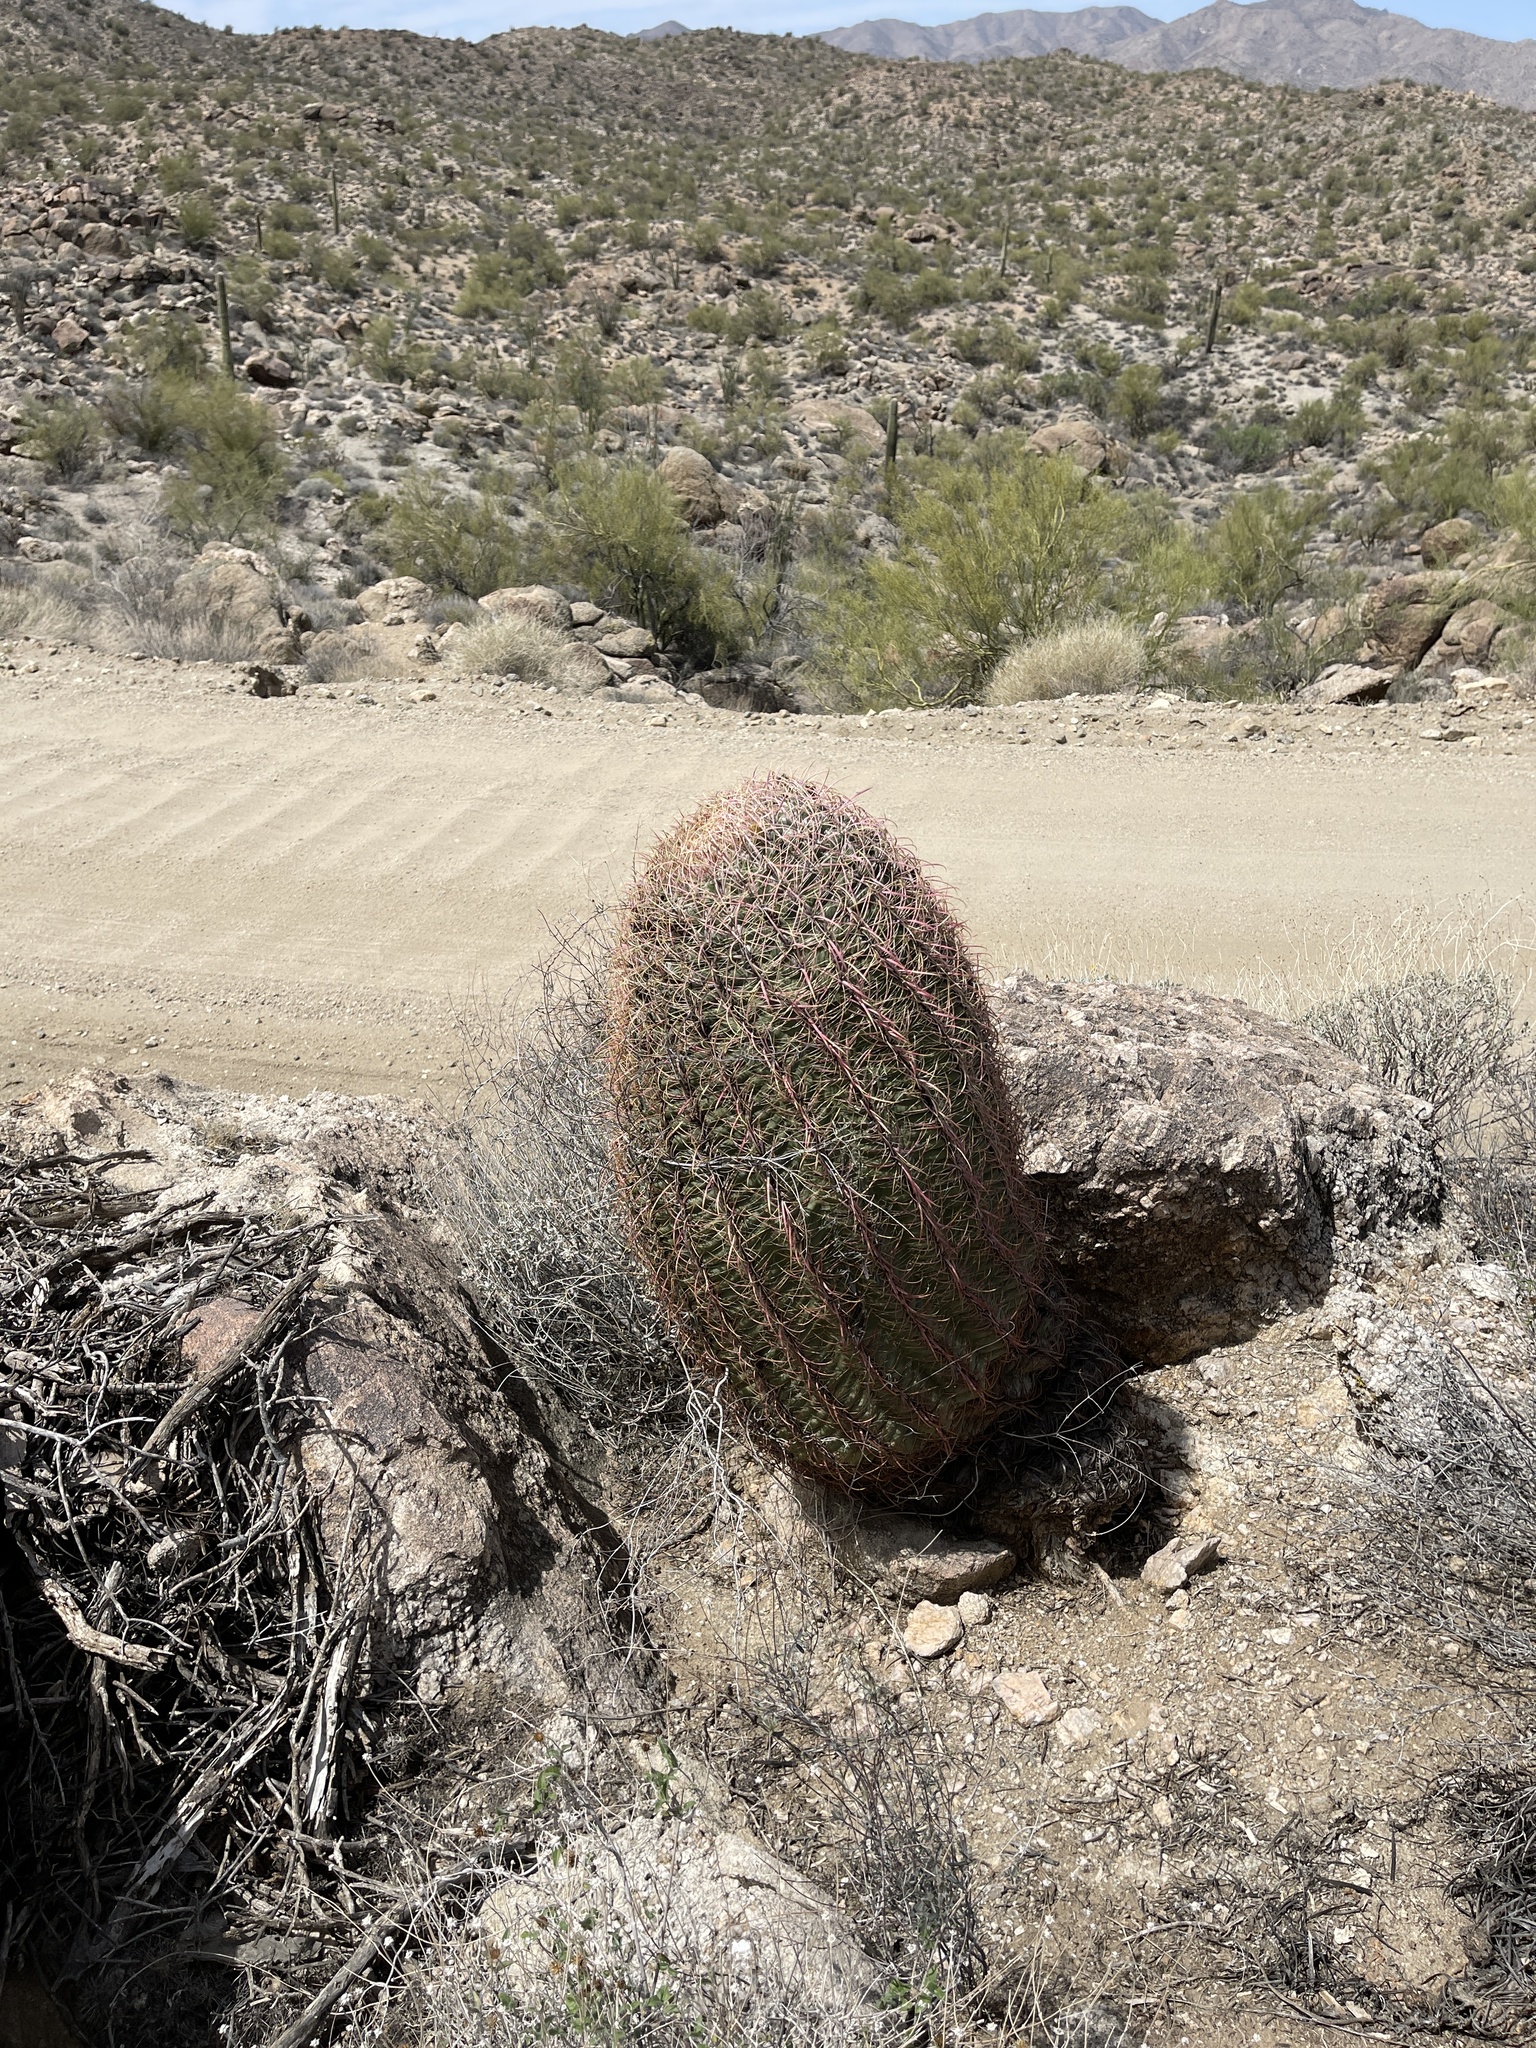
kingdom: Plantae
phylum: Tracheophyta
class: Magnoliopsida
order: Caryophyllales
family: Cactaceae
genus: Ferocactus
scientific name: Ferocactus cylindraceus
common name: California barrel cactus
